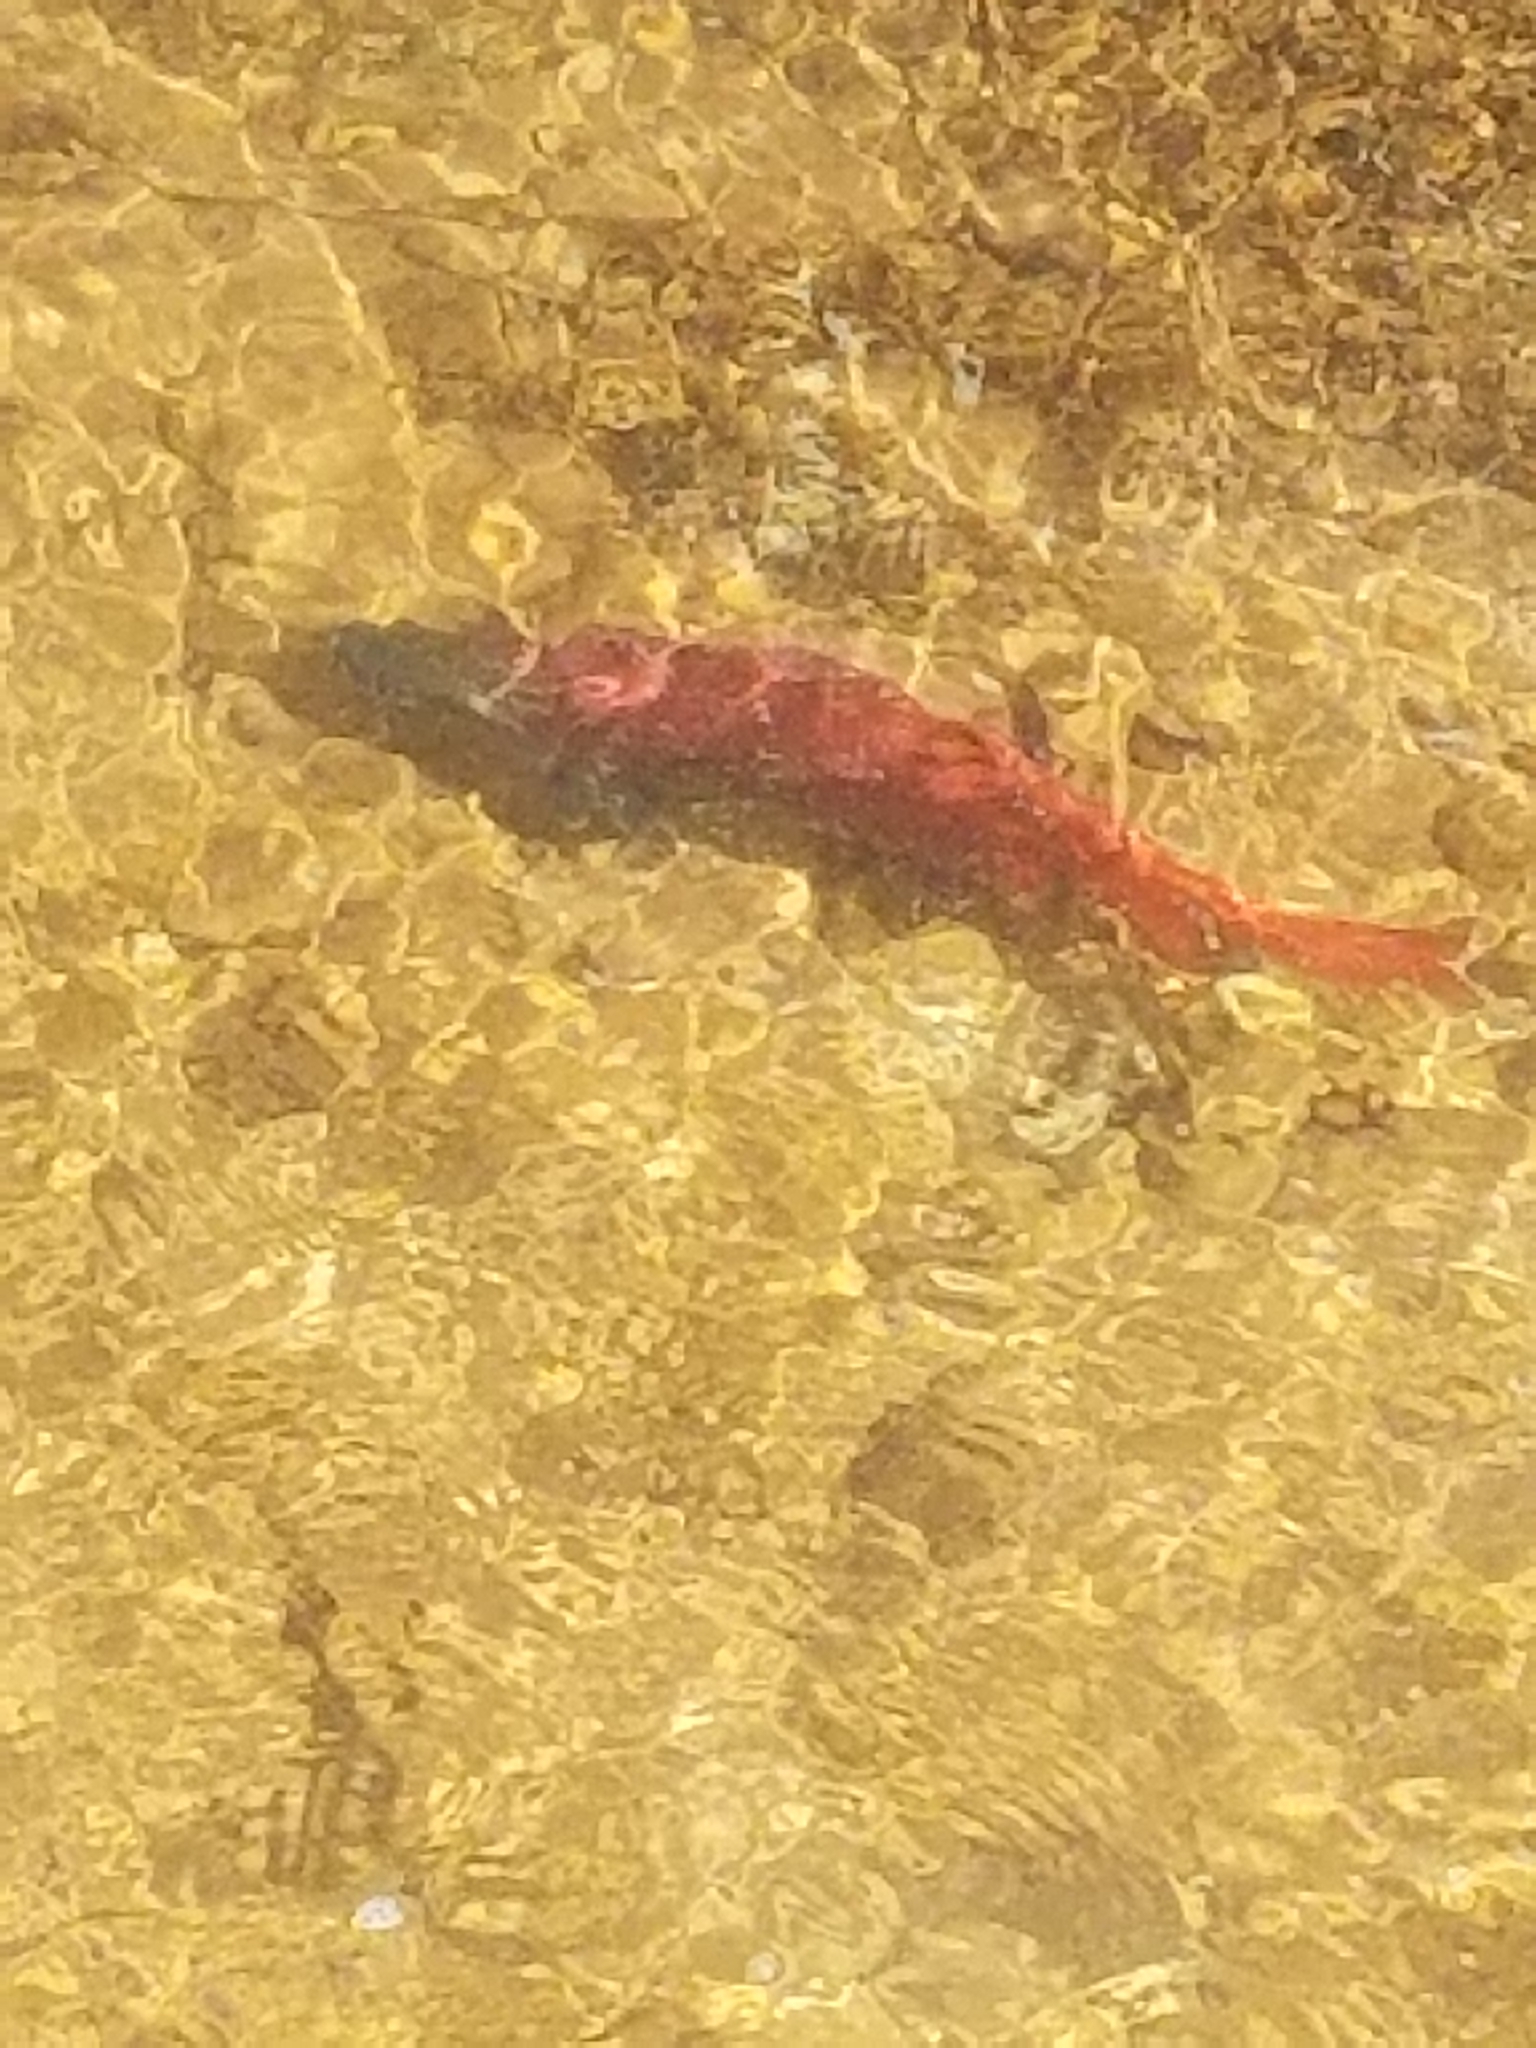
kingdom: Animalia
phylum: Chordata
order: Salmoniformes
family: Salmonidae
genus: Oncorhynchus
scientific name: Oncorhynchus nerka
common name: Sockeye salmon
